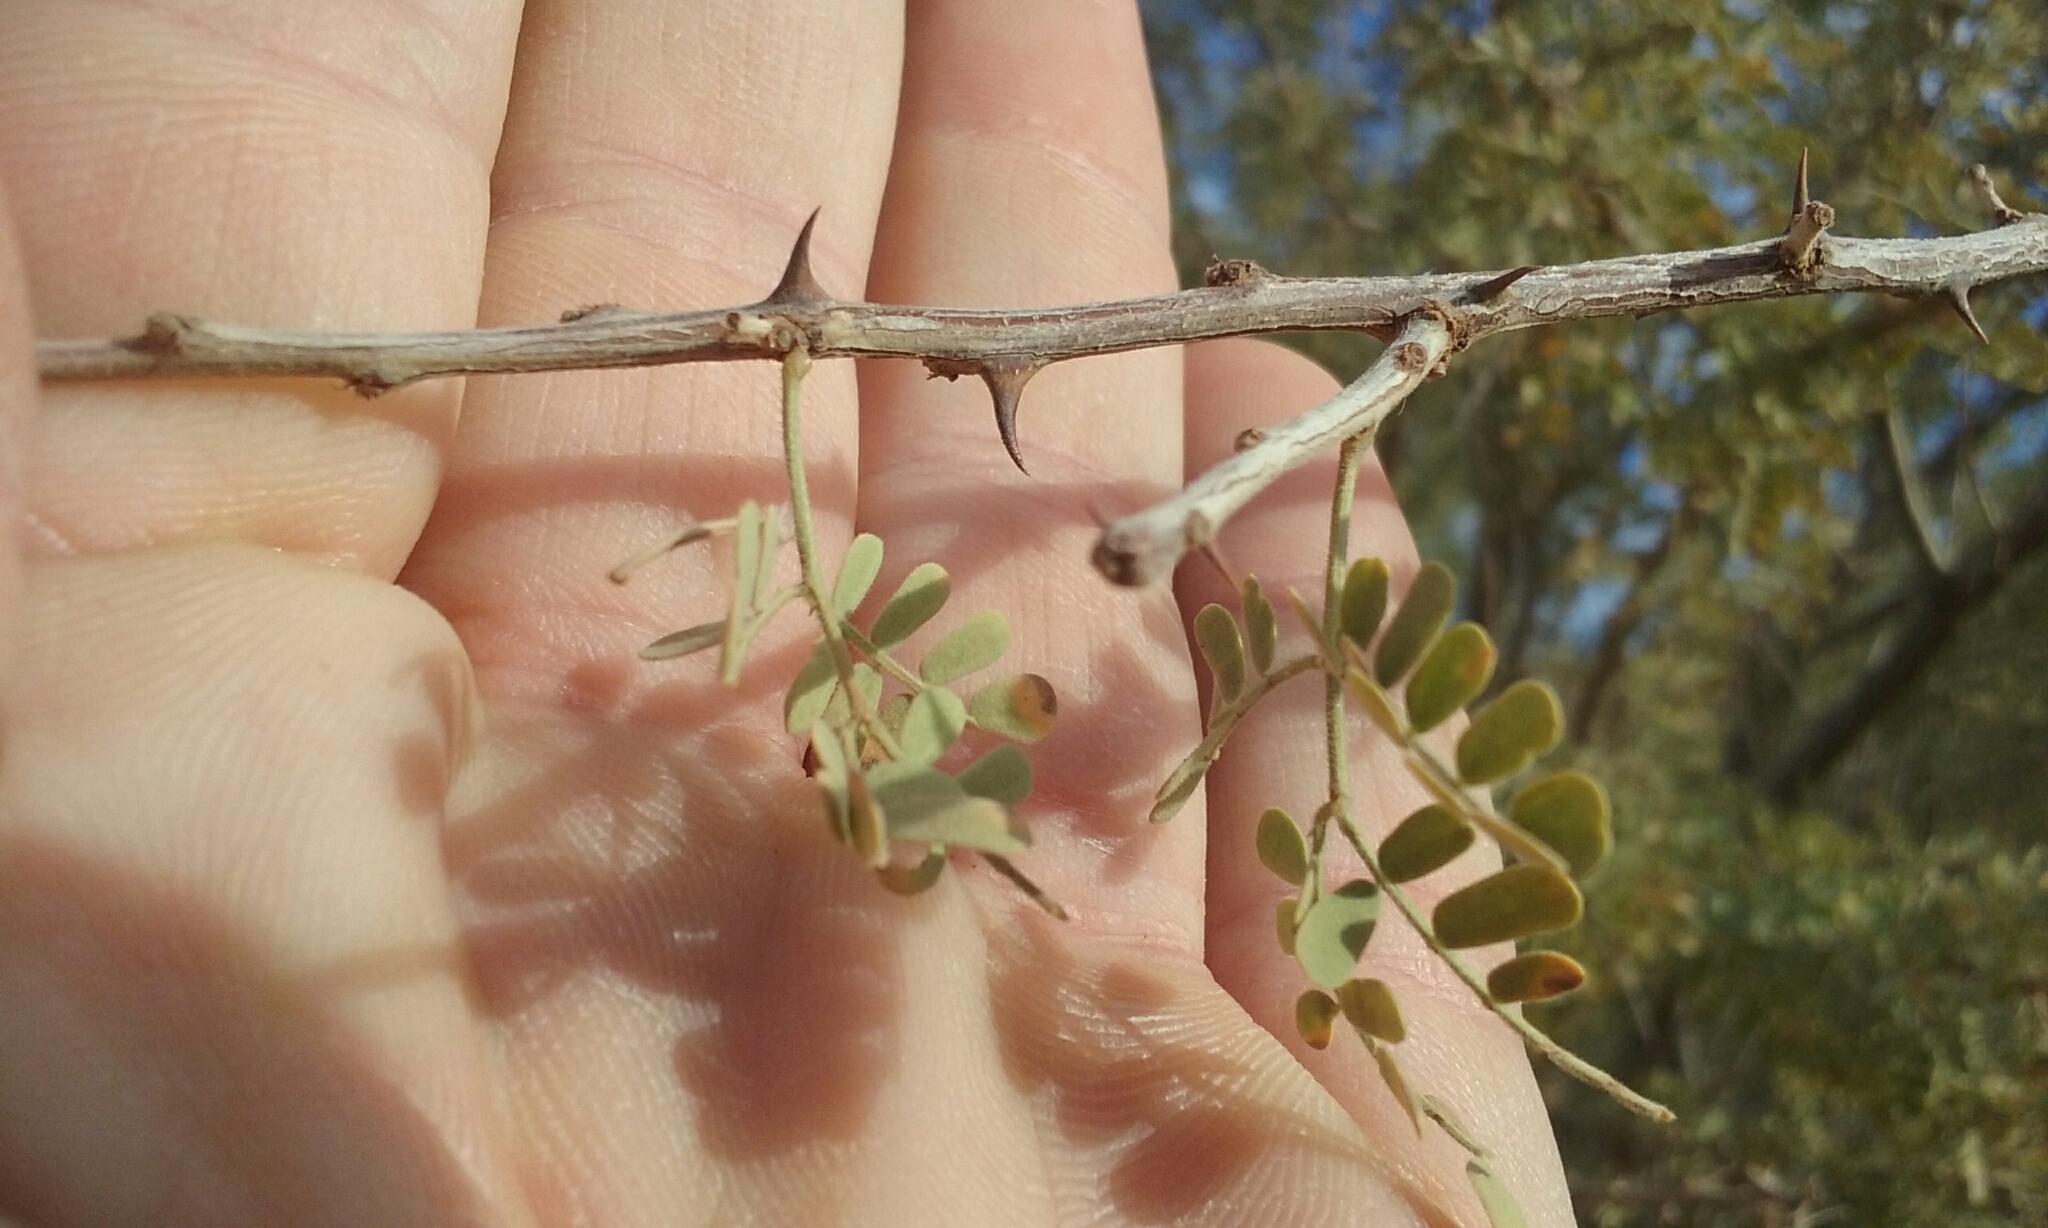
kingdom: Plantae
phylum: Tracheophyta
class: Magnoliopsida
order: Fabales
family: Fabaceae
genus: Senegalia
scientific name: Senegalia greggii
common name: Texas-mimosa
